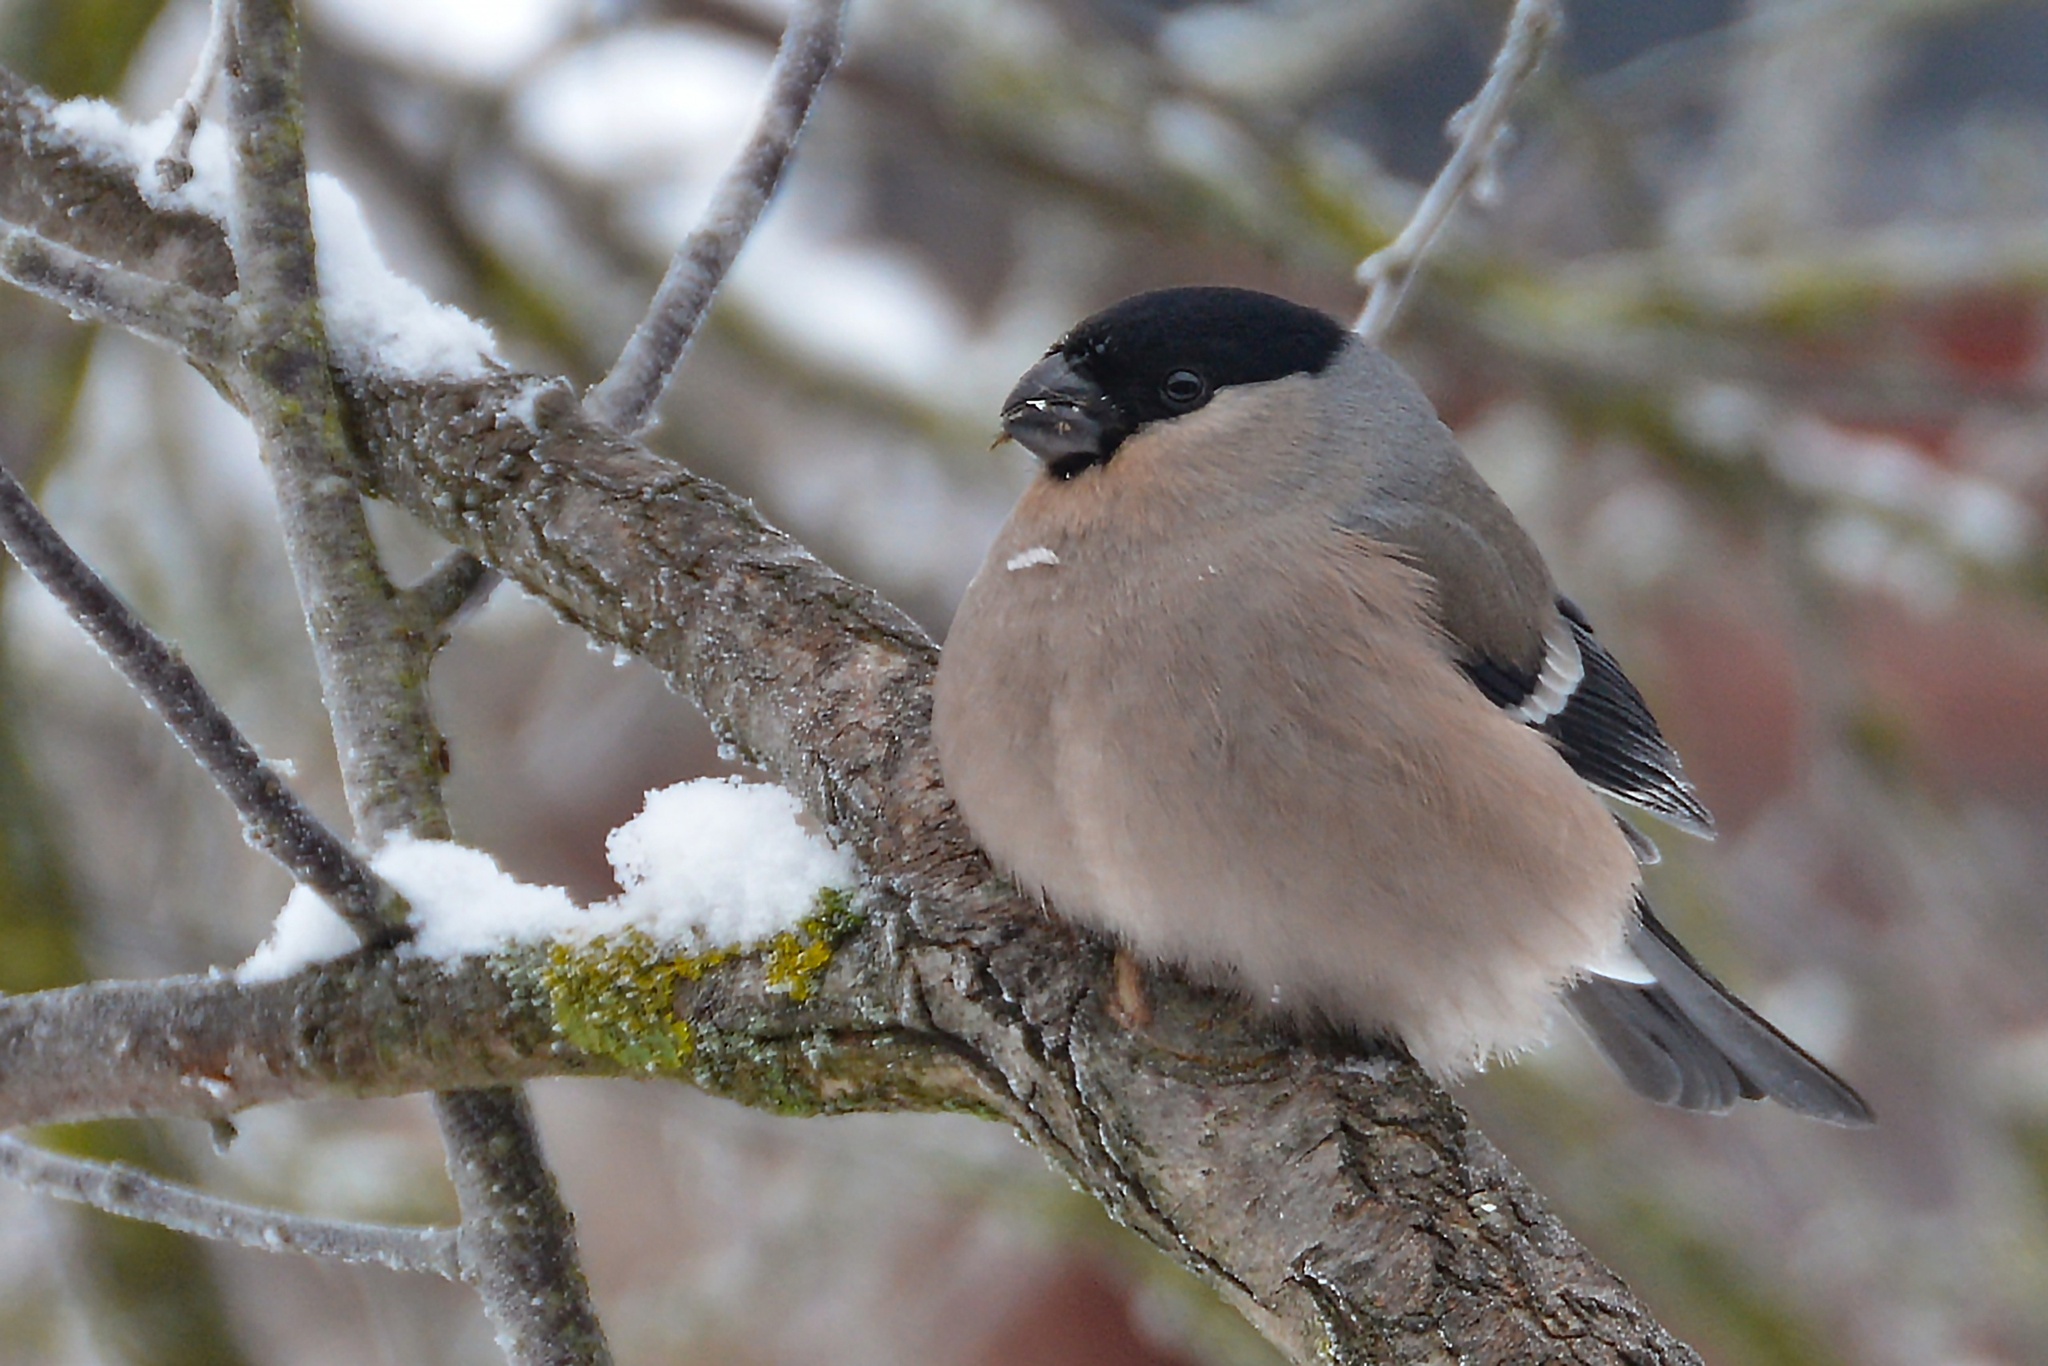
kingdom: Animalia
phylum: Chordata
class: Aves
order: Passeriformes
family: Fringillidae
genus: Pyrrhula
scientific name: Pyrrhula pyrrhula
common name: Eurasian bullfinch
